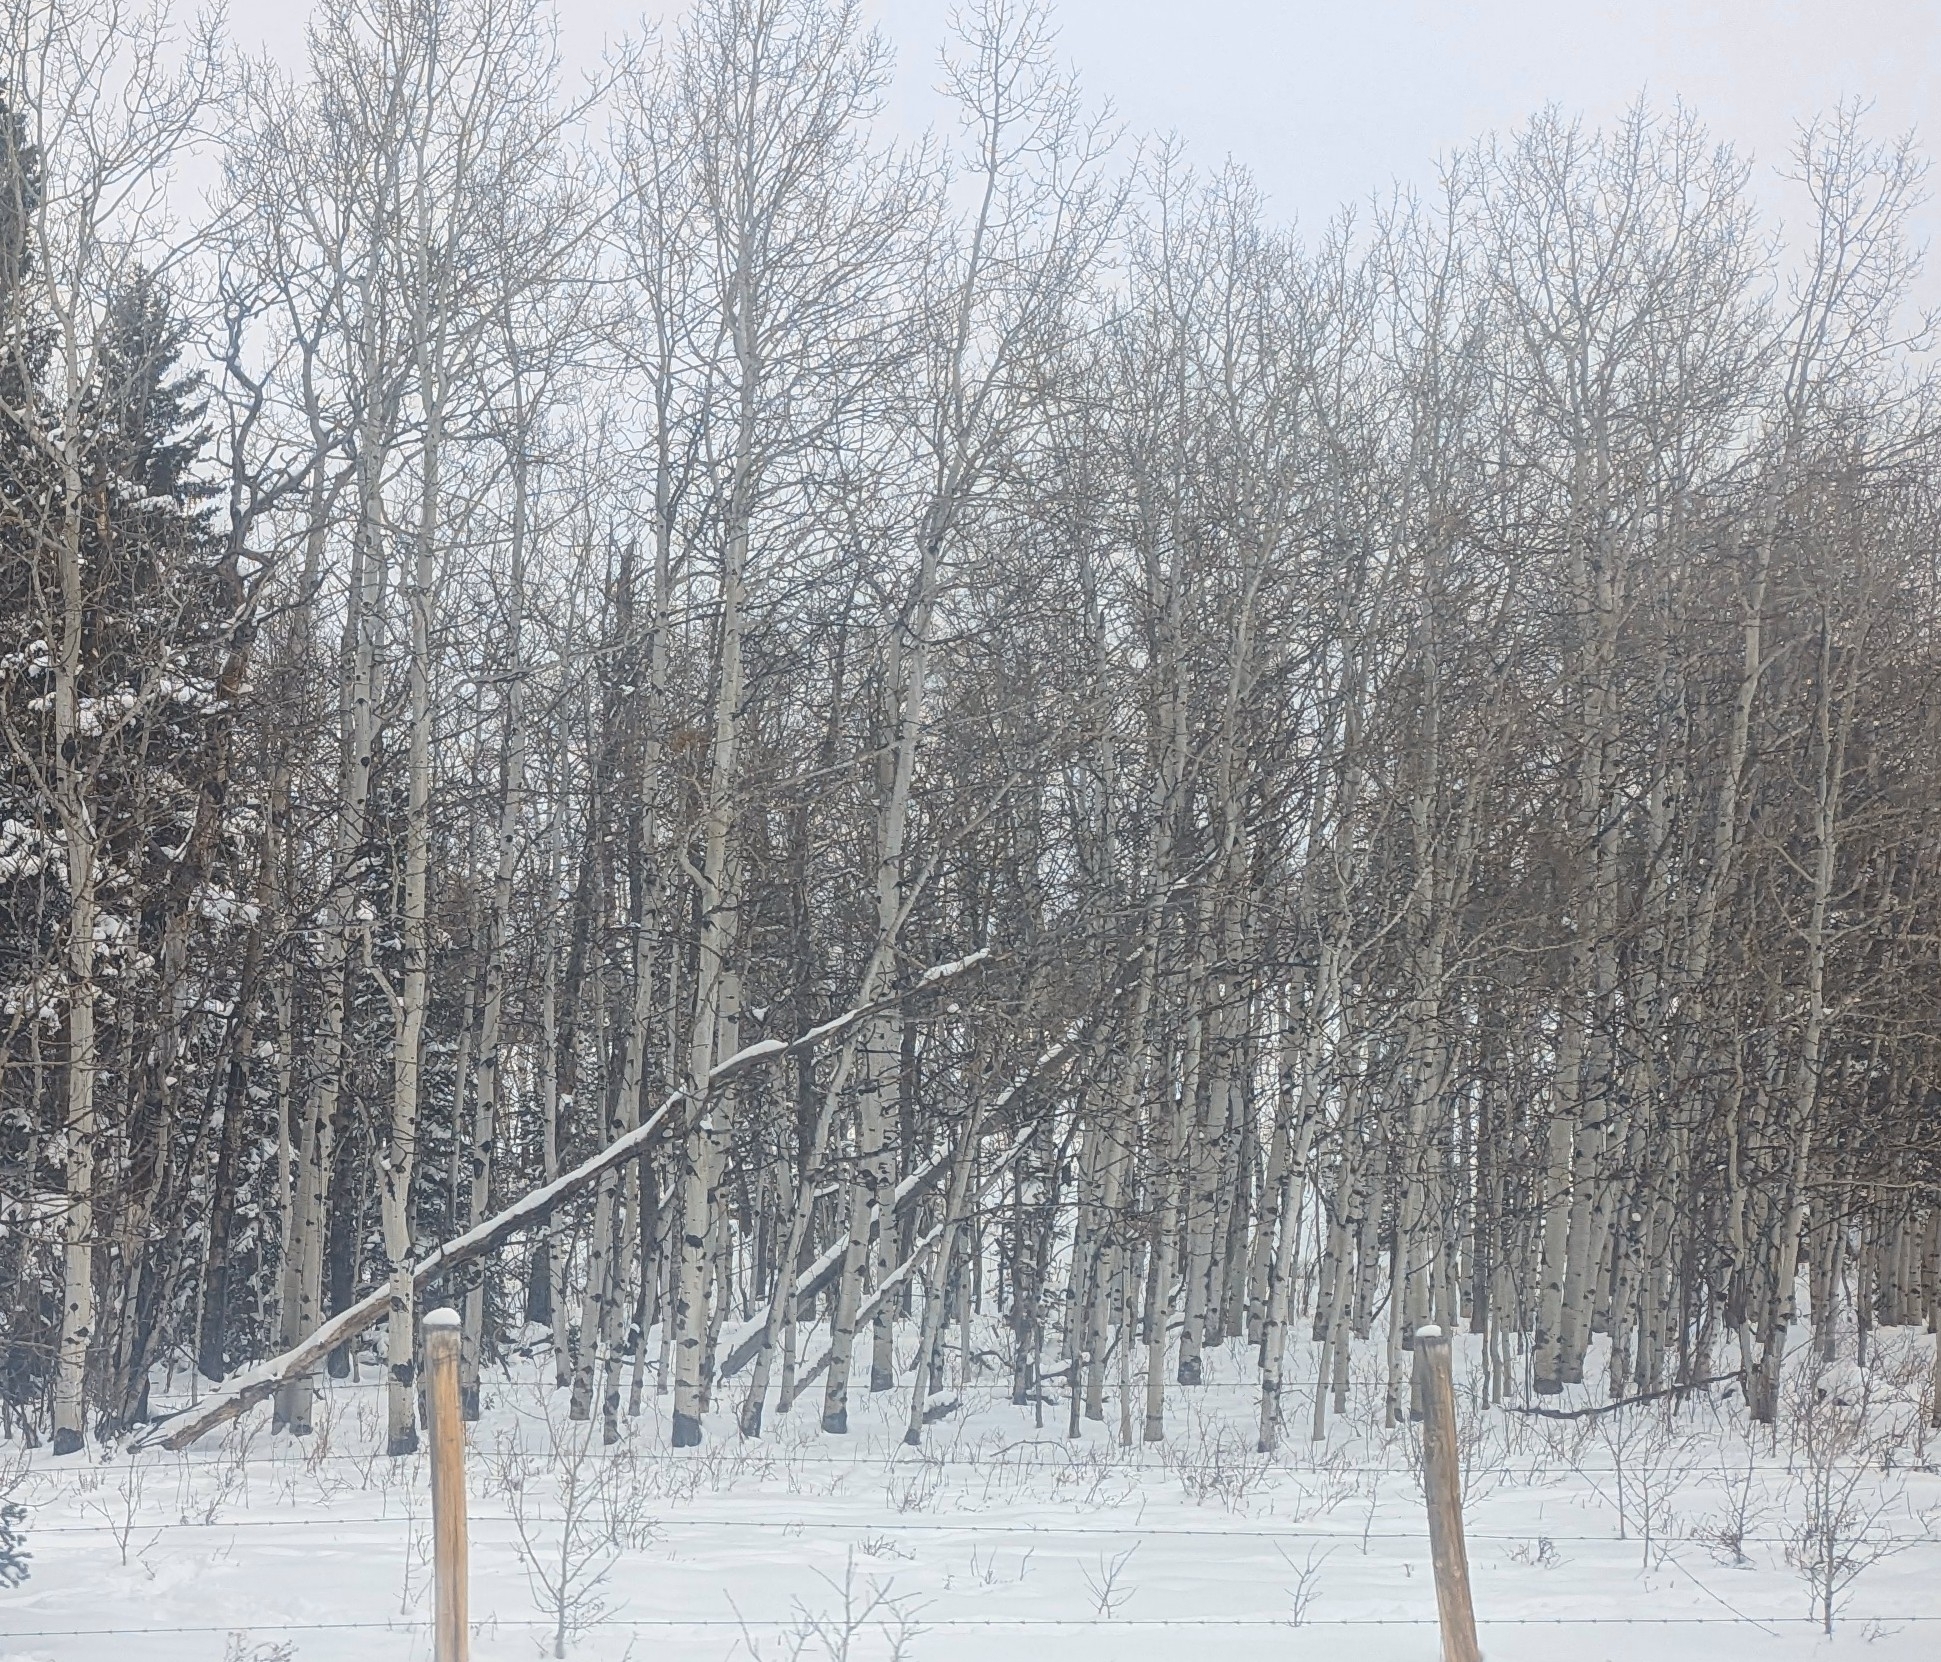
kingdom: Plantae
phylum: Tracheophyta
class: Magnoliopsida
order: Malpighiales
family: Salicaceae
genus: Populus
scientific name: Populus tremuloides
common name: Quaking aspen
